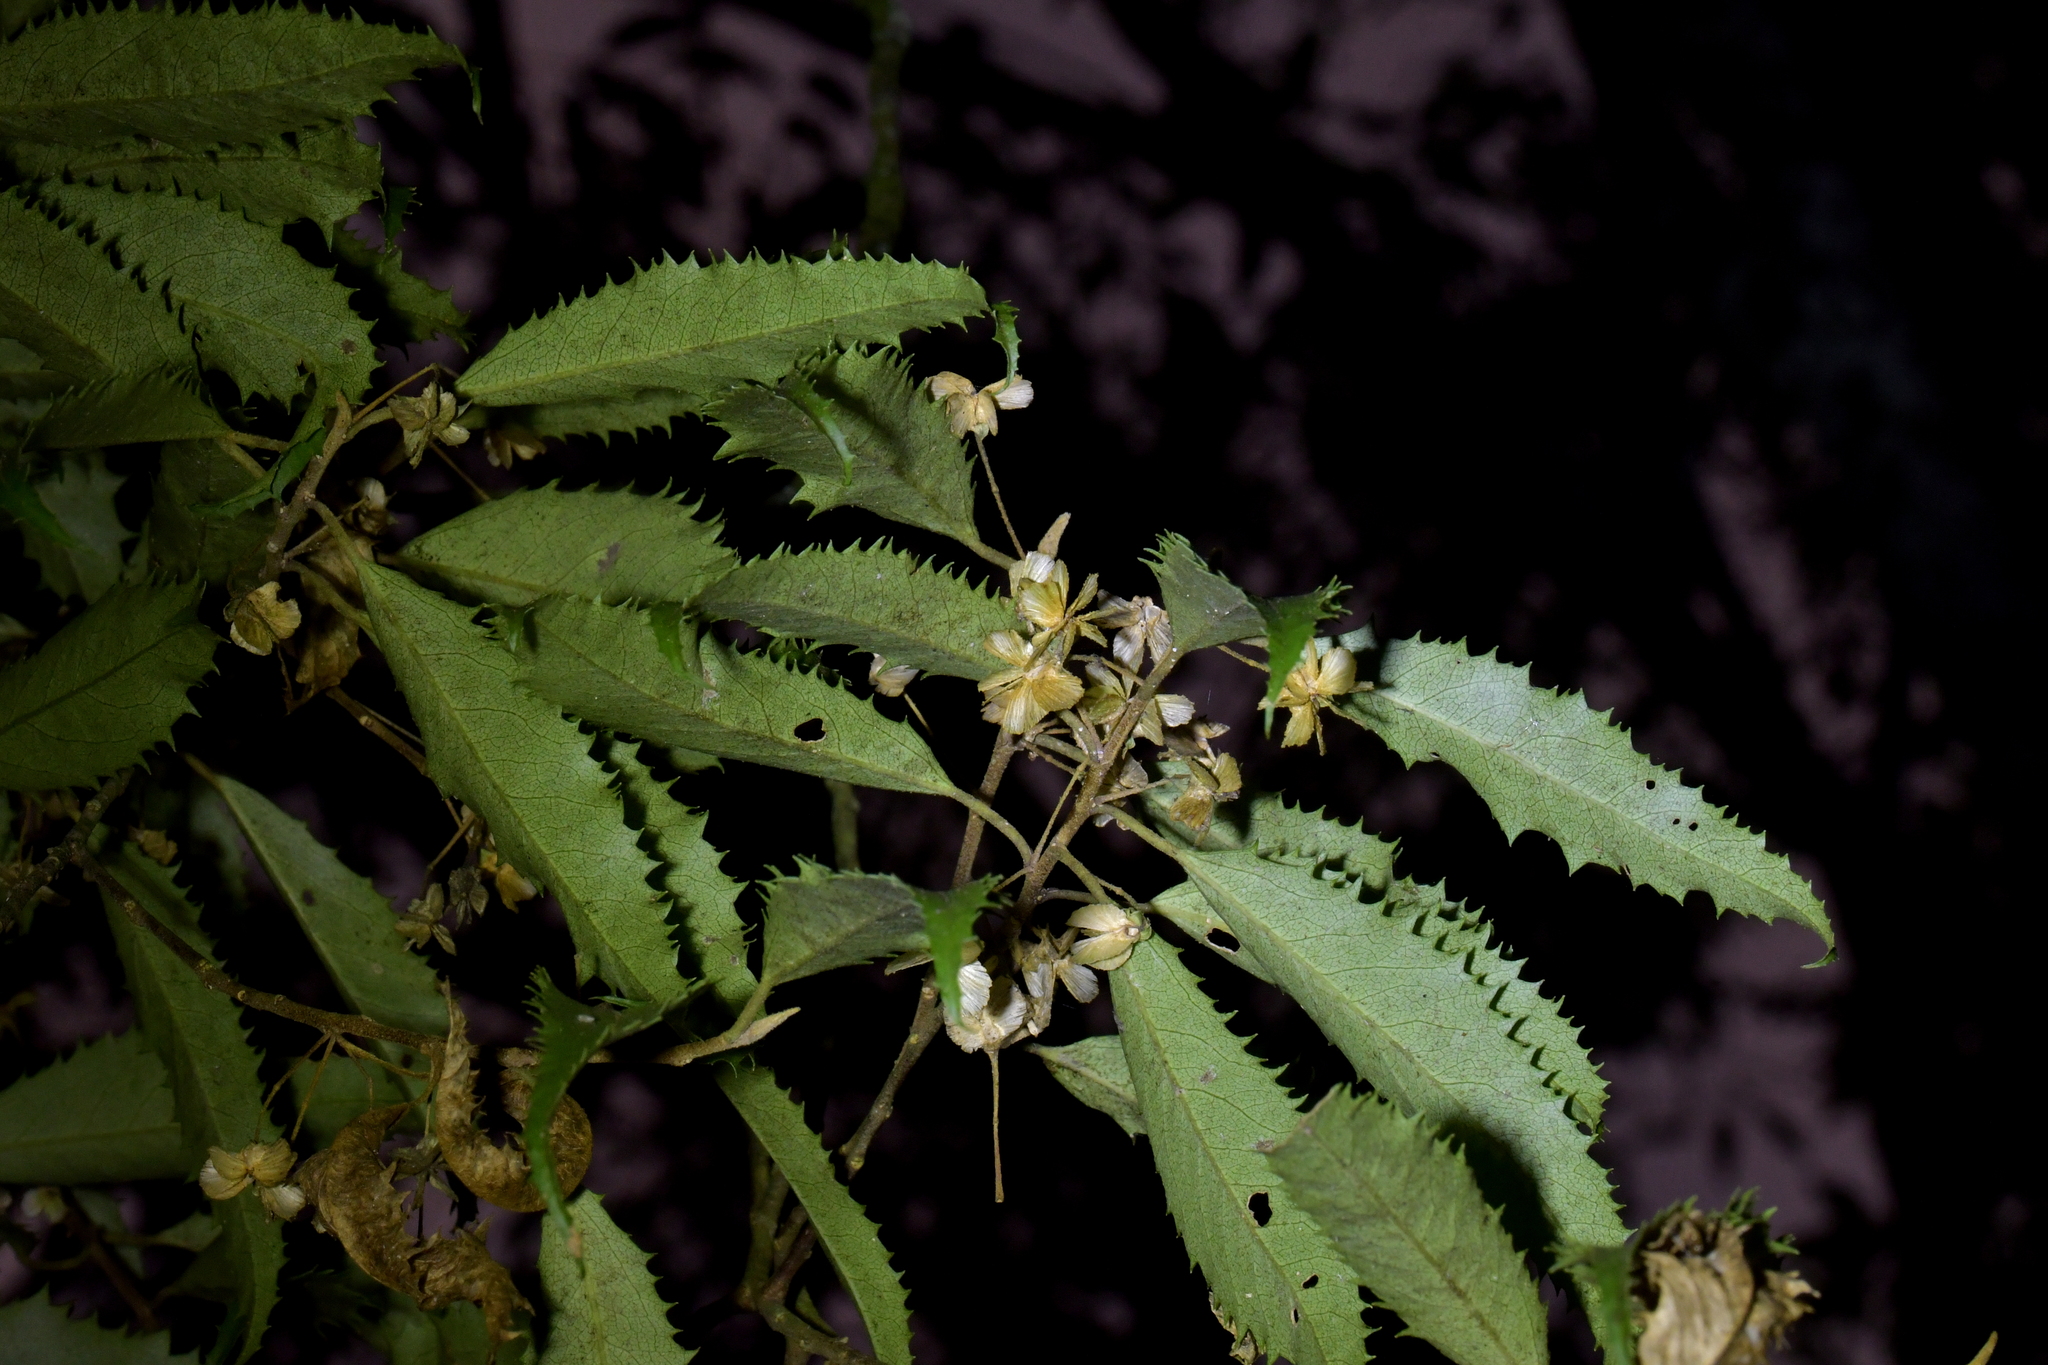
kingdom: Plantae
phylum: Tracheophyta
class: Magnoliopsida
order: Malvales
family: Malvaceae
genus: Hoheria
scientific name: Hoheria angustifolia
